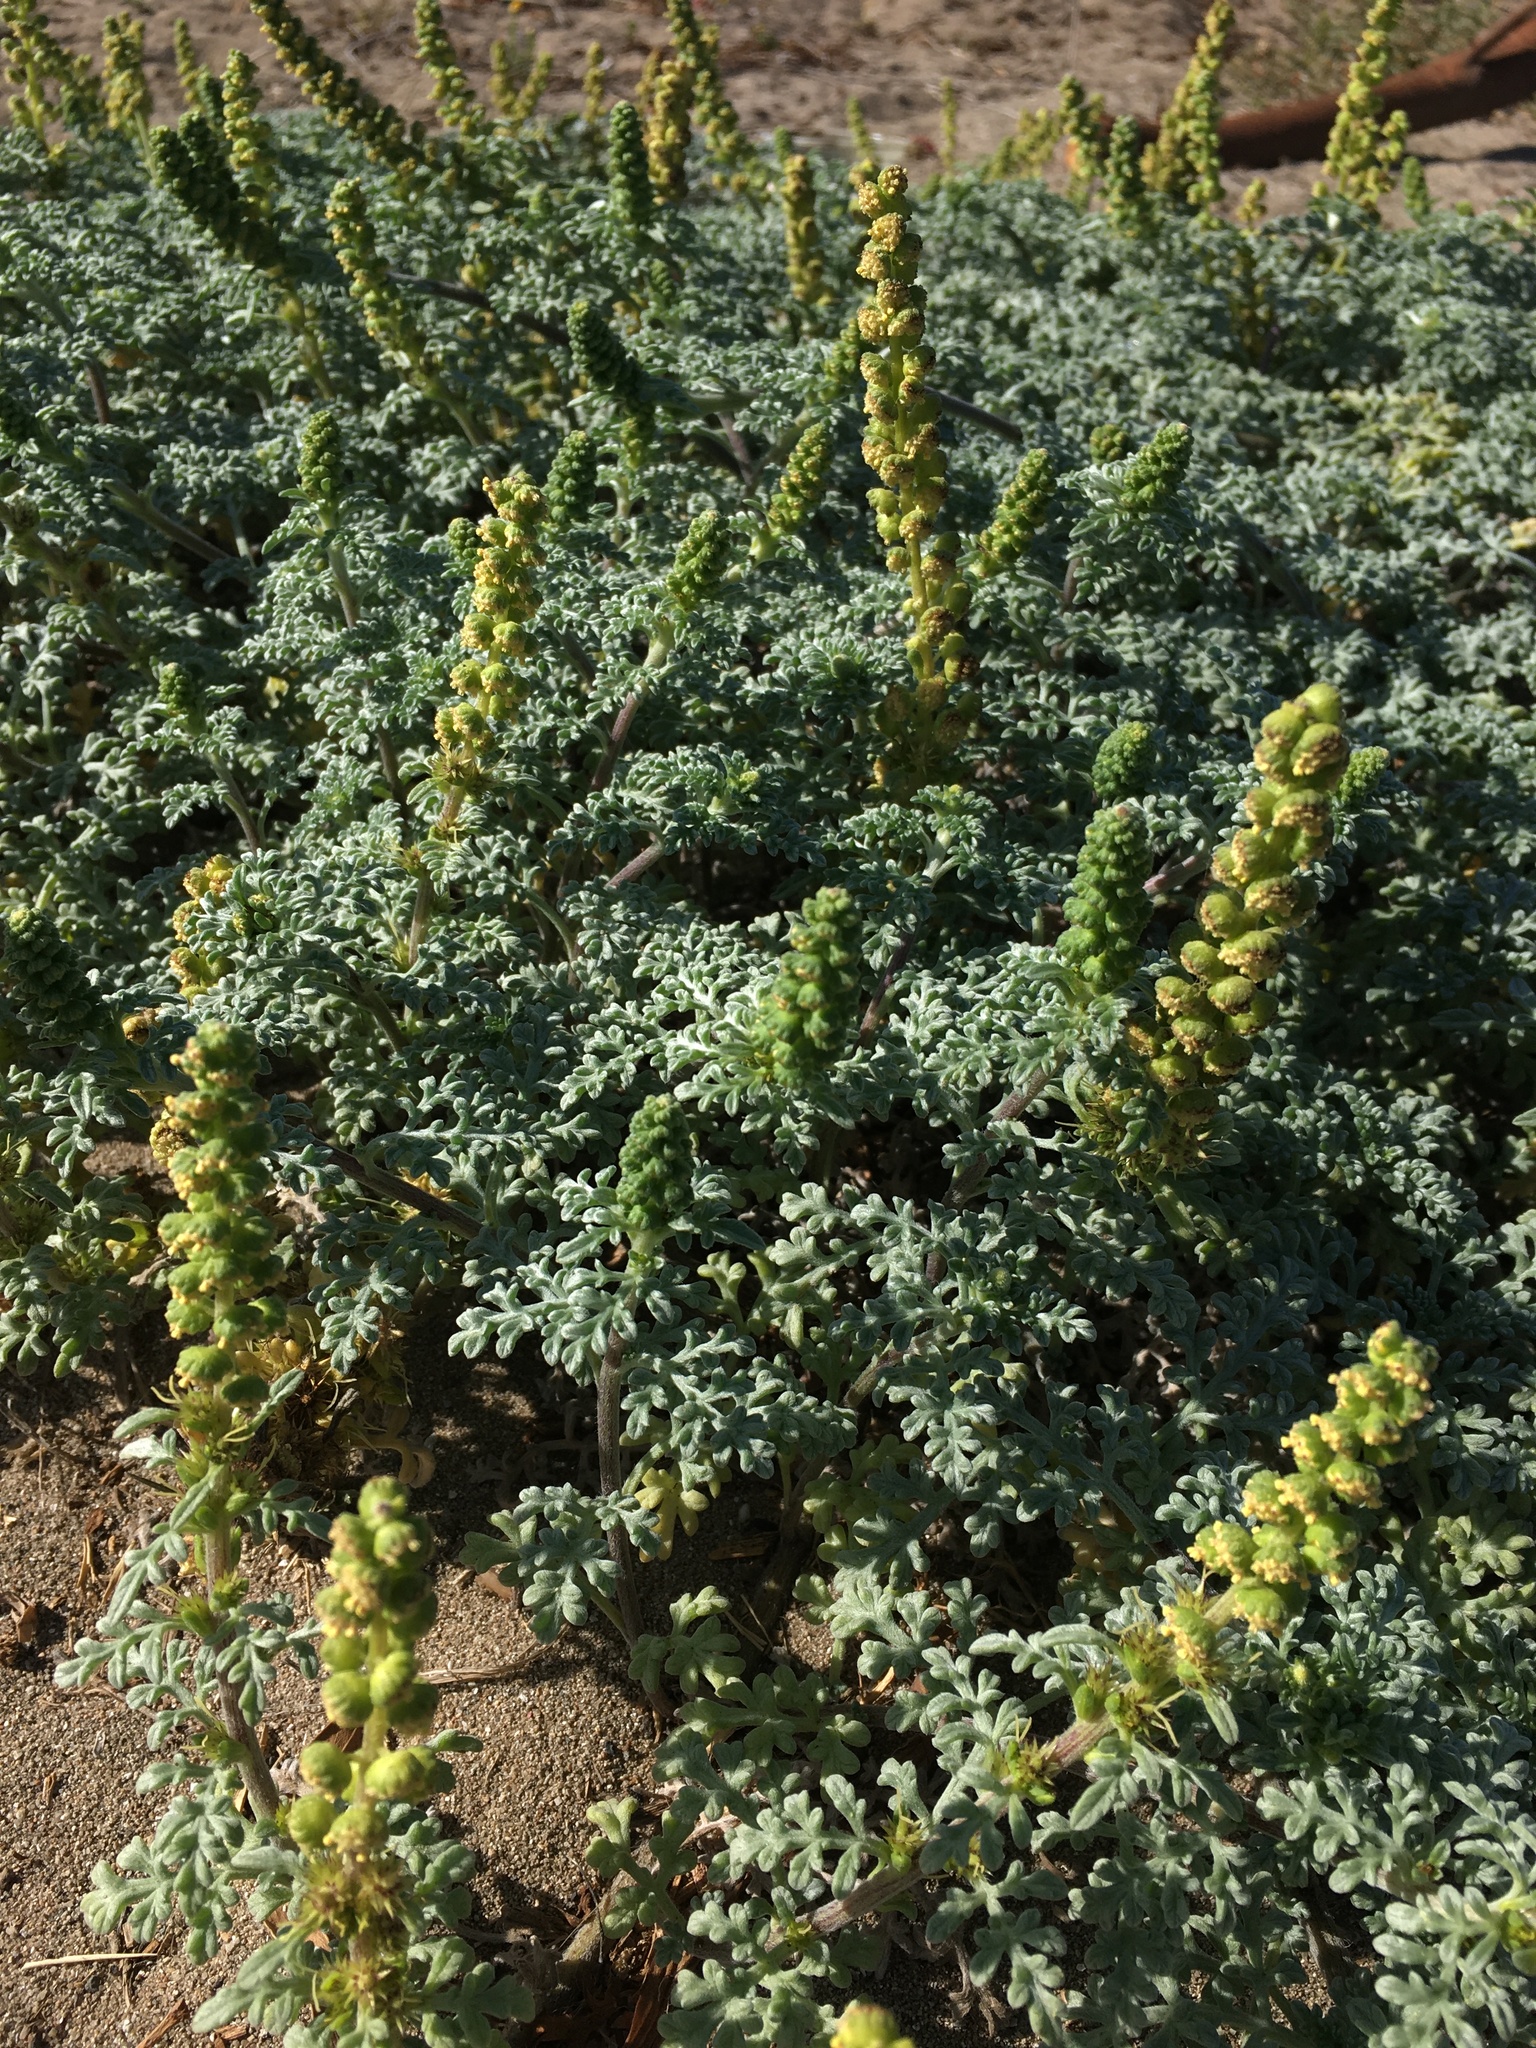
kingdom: Plantae
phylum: Tracheophyta
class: Magnoliopsida
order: Asterales
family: Asteraceae
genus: Ambrosia
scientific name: Ambrosia chamissonis
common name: Beachbur
